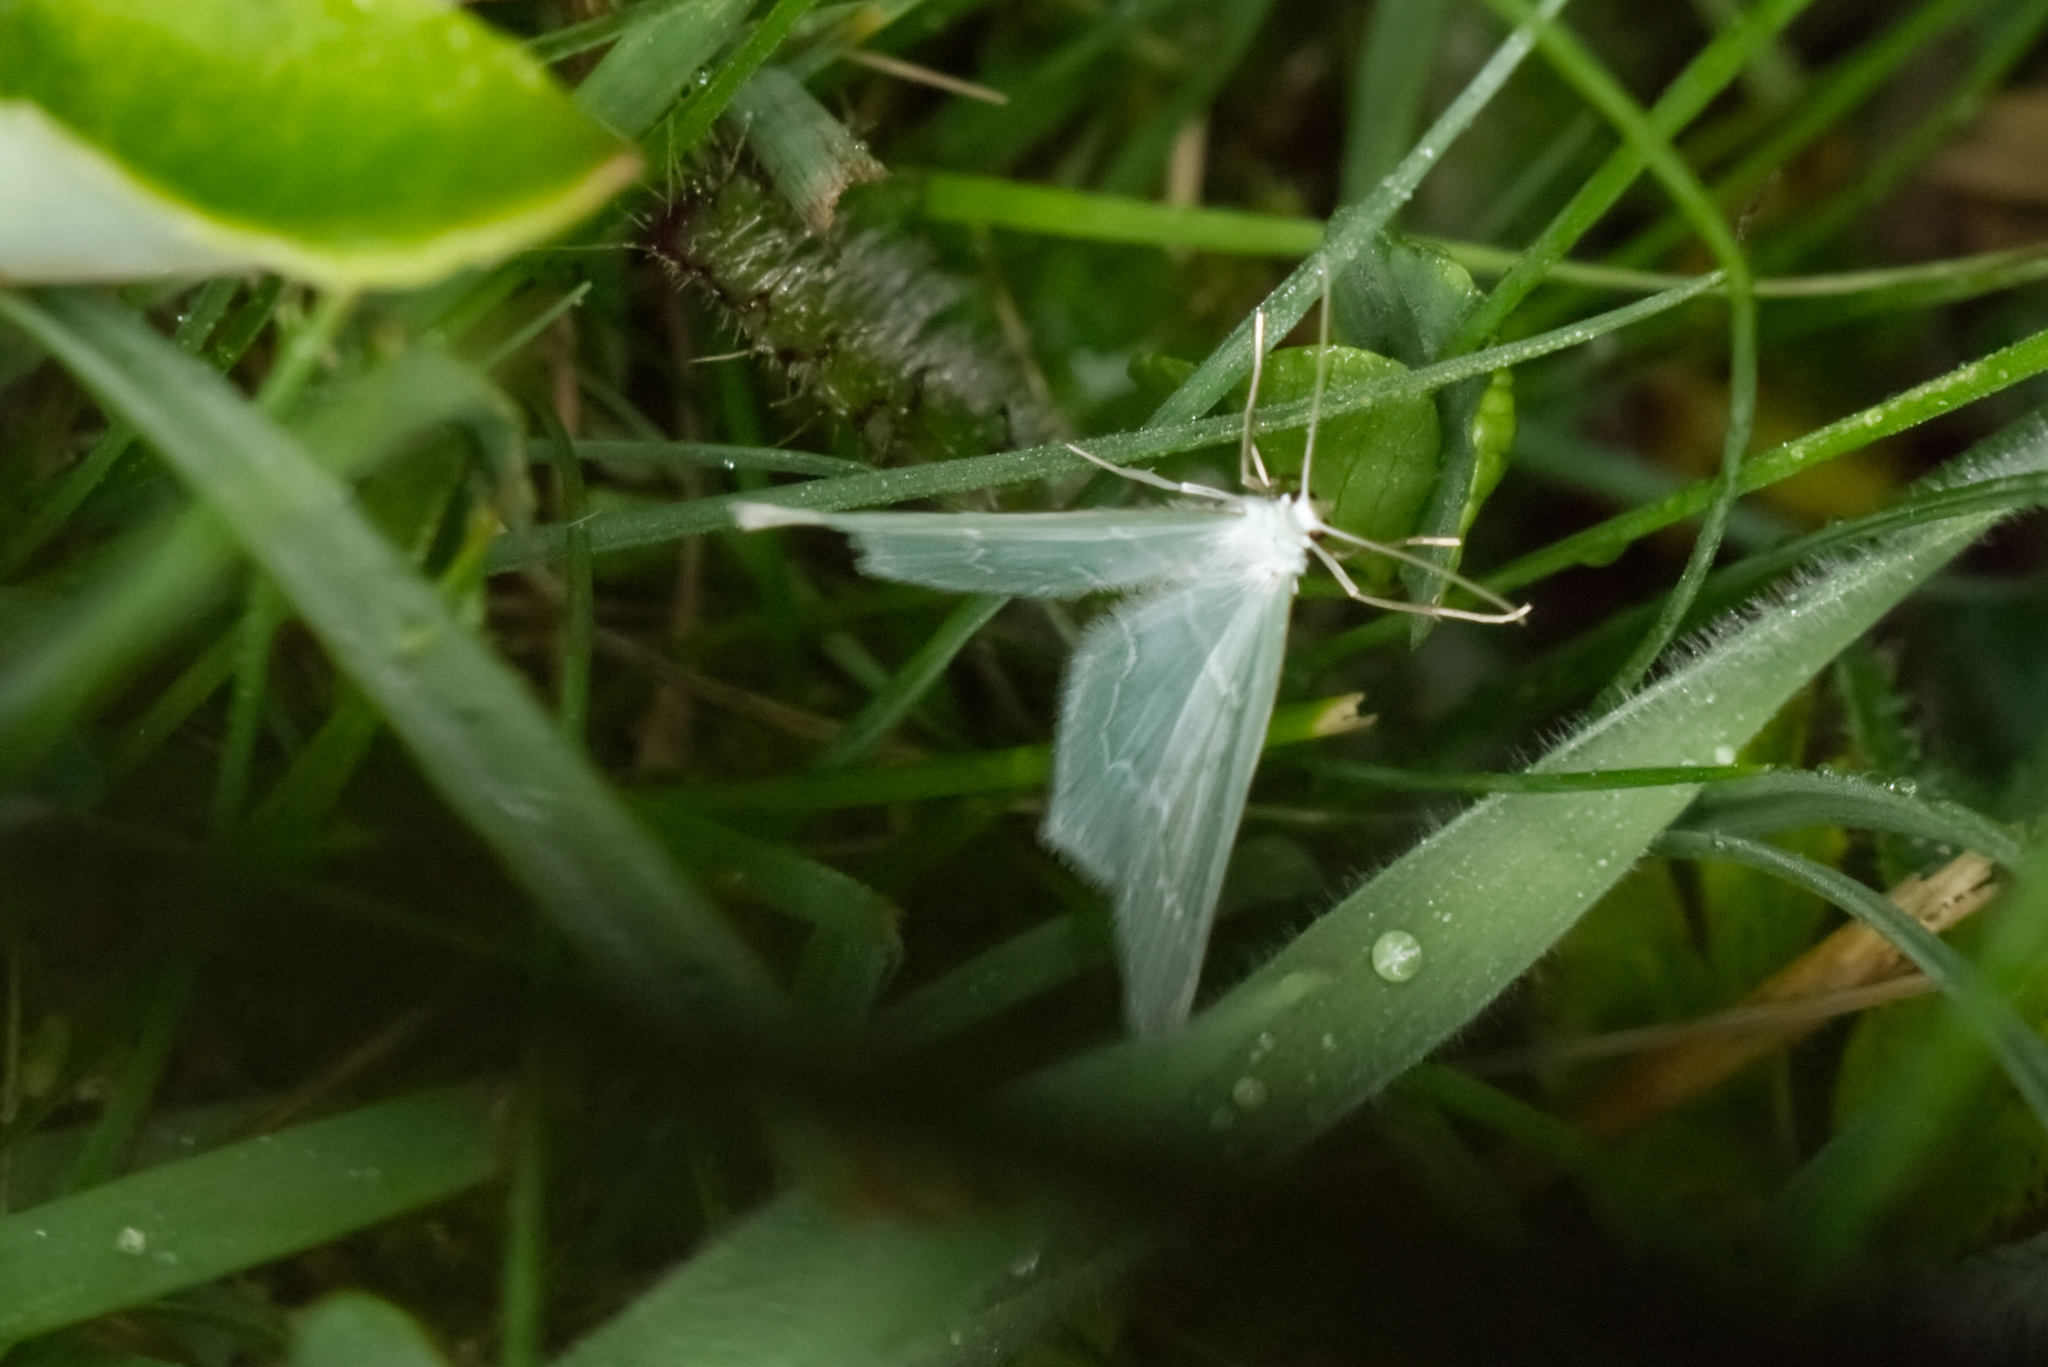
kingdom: Animalia
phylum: Arthropoda
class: Insecta
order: Lepidoptera
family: Geometridae
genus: Jodis
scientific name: Jodis putata
